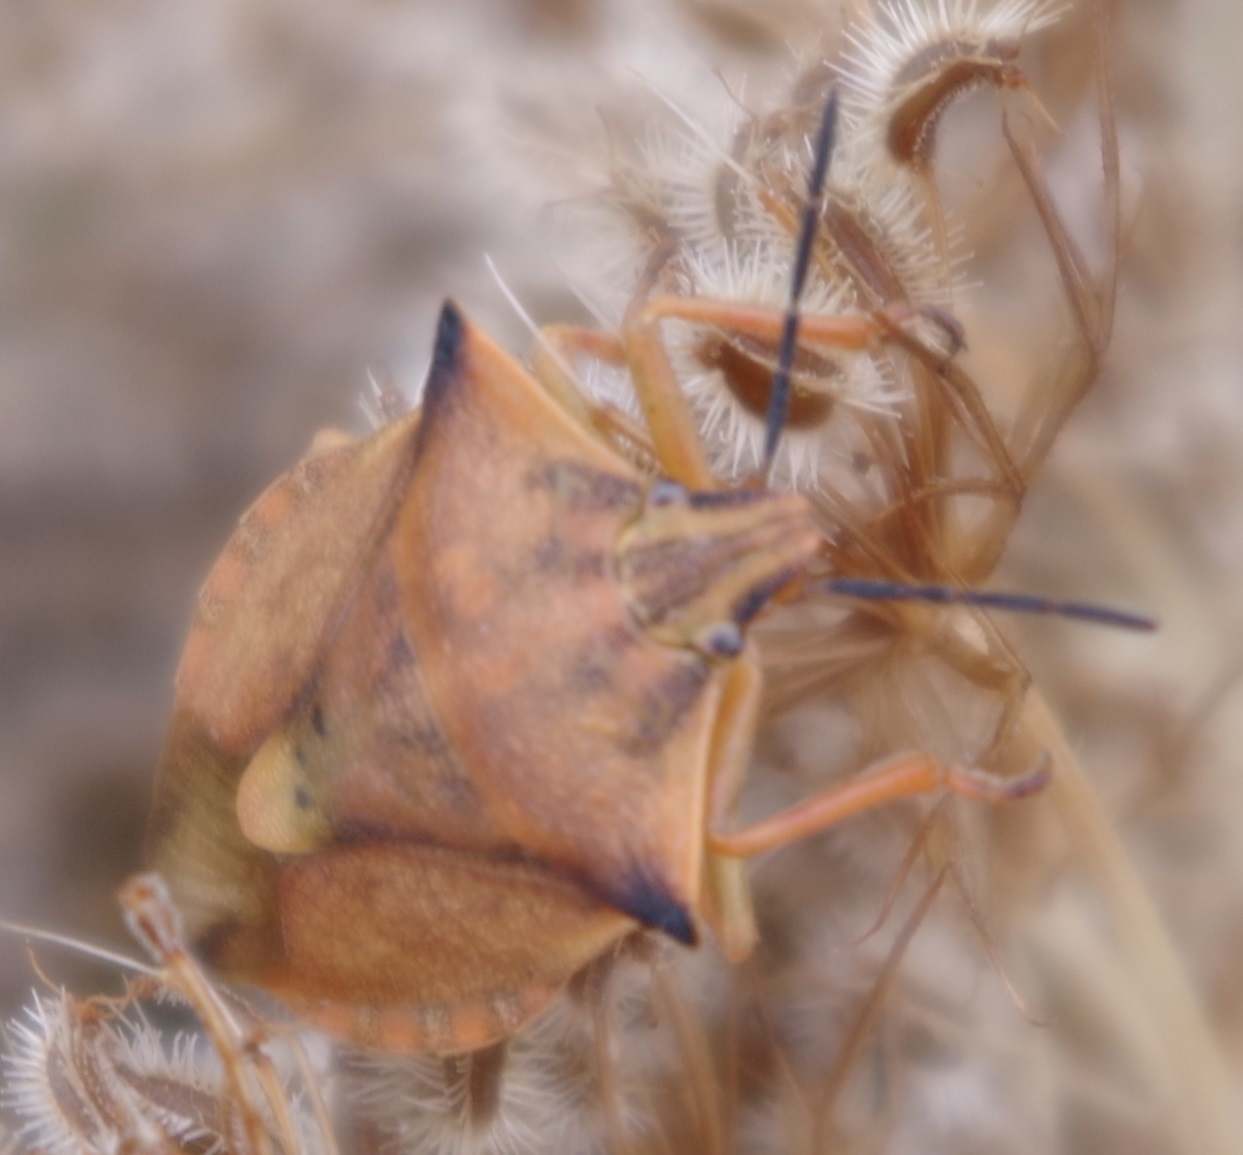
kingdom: Animalia
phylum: Arthropoda
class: Insecta
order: Hemiptera
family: Pentatomidae
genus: Carpocoris
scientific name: Carpocoris fuscispinus
